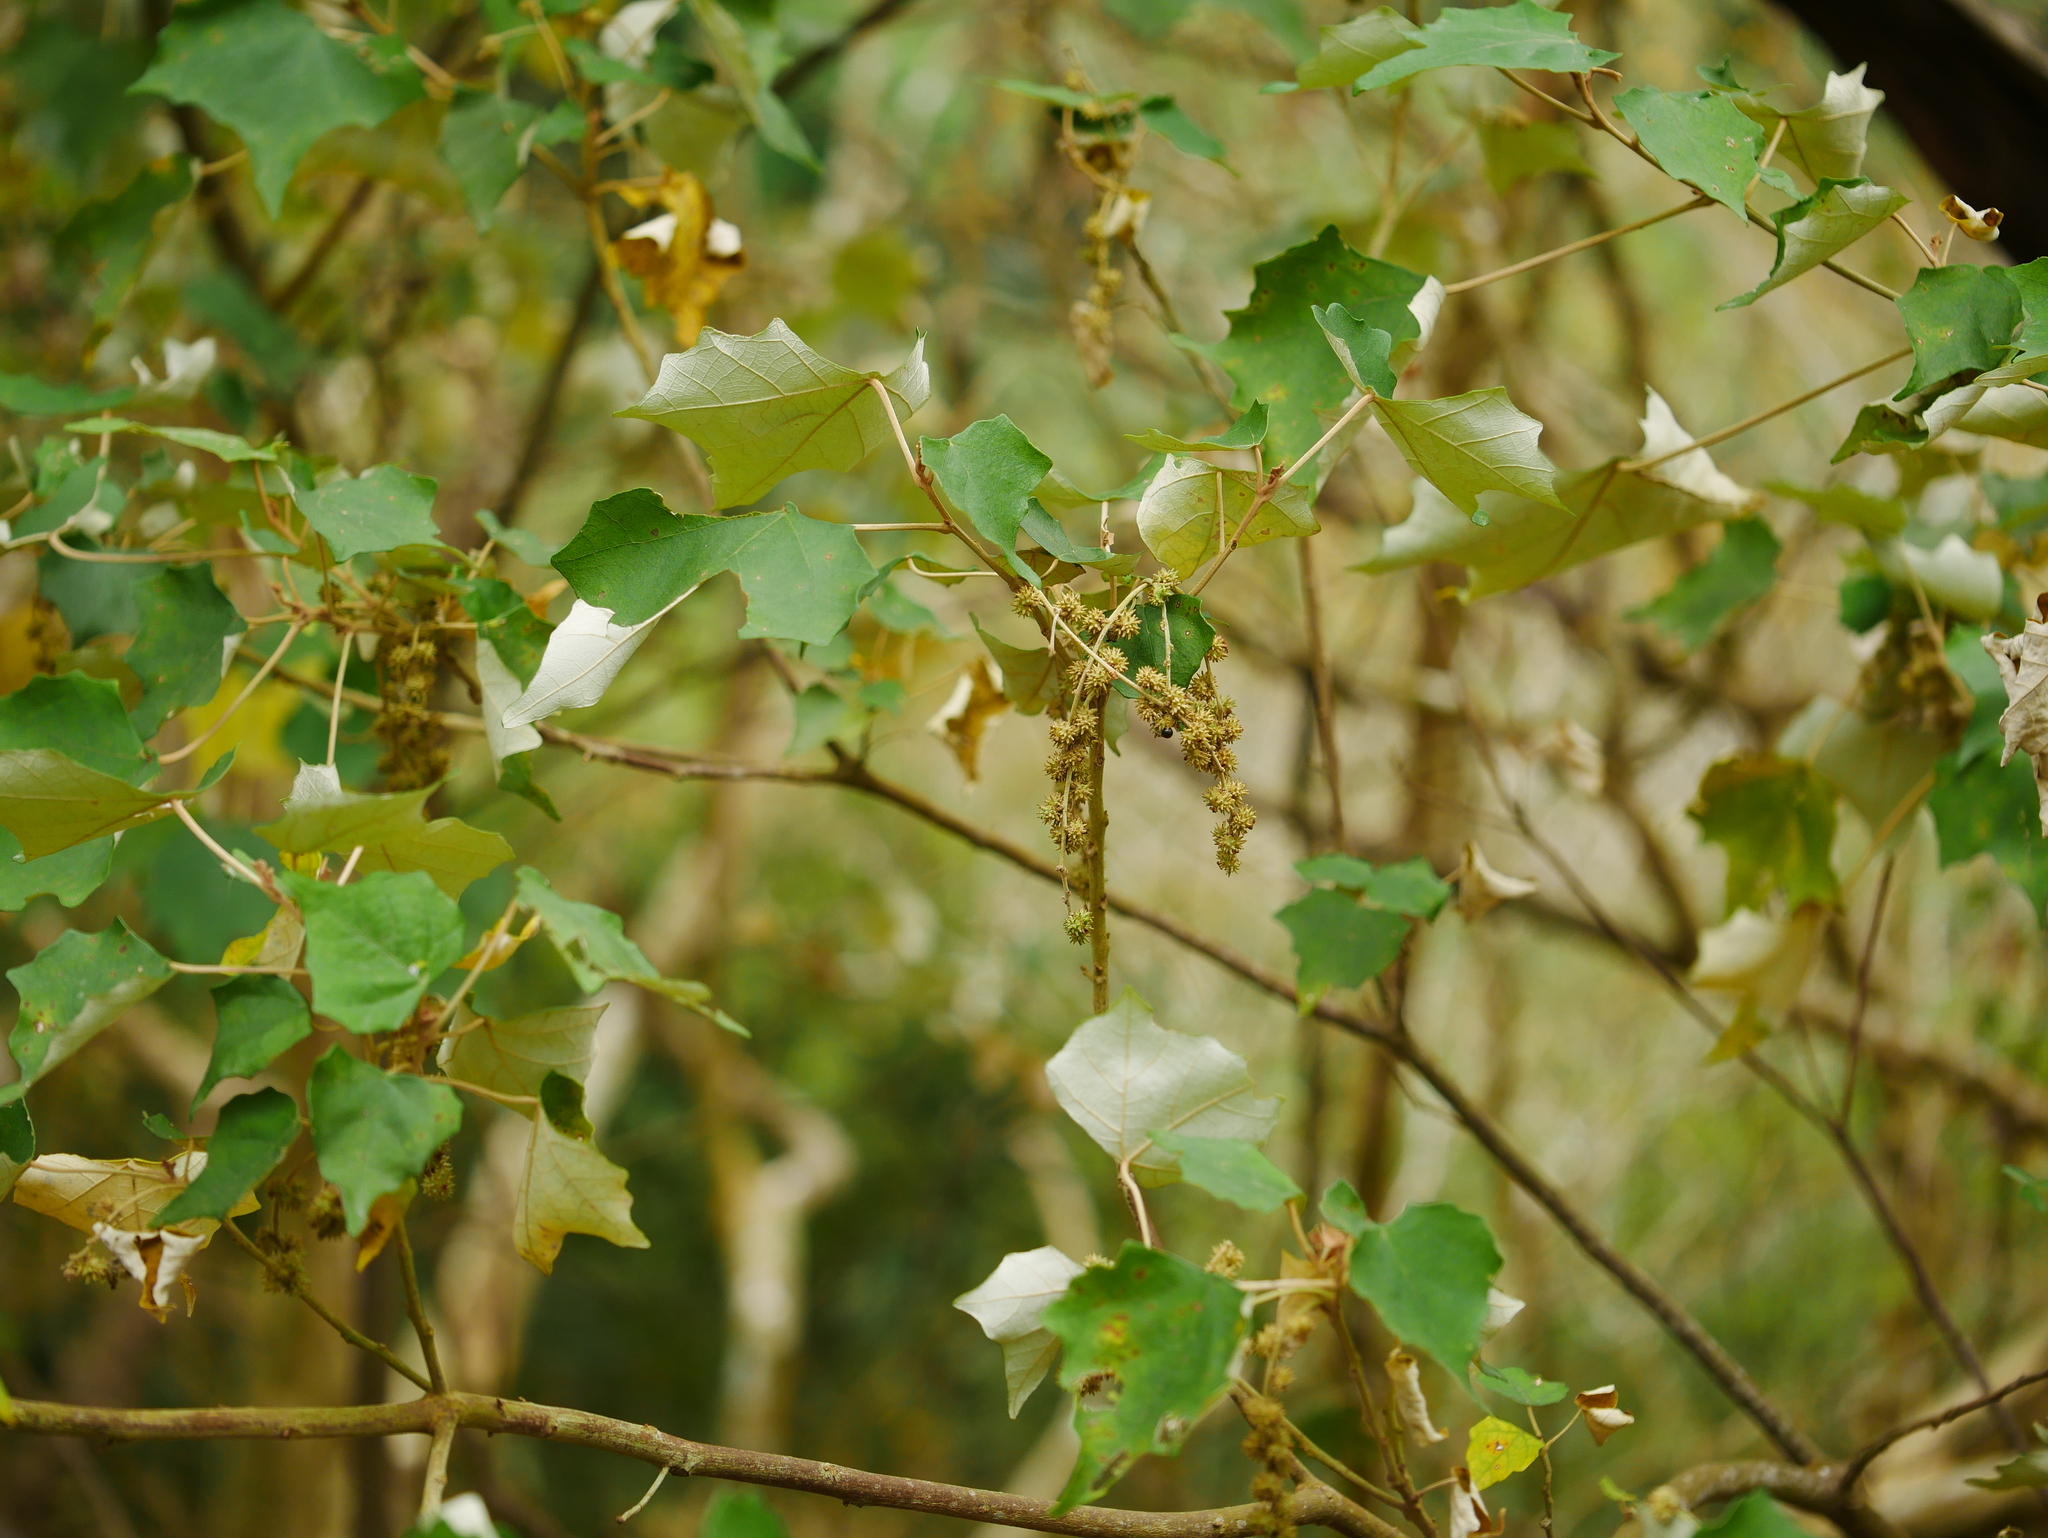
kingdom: Plantae
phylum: Tracheophyta
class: Magnoliopsida
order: Malpighiales
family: Euphorbiaceae
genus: Mallotus
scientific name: Mallotus paniculatus
